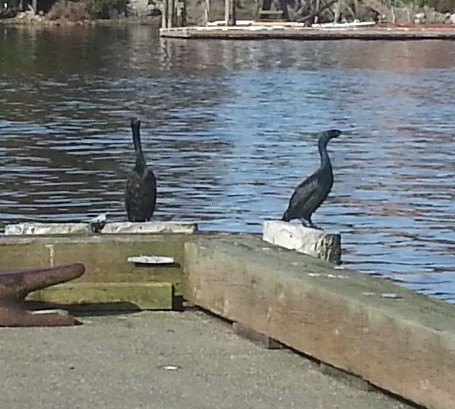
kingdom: Animalia
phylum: Chordata
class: Aves
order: Suliformes
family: Phalacrocoracidae
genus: Phalacrocorax
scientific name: Phalacrocorax pelagicus
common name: Pelagic cormorant
